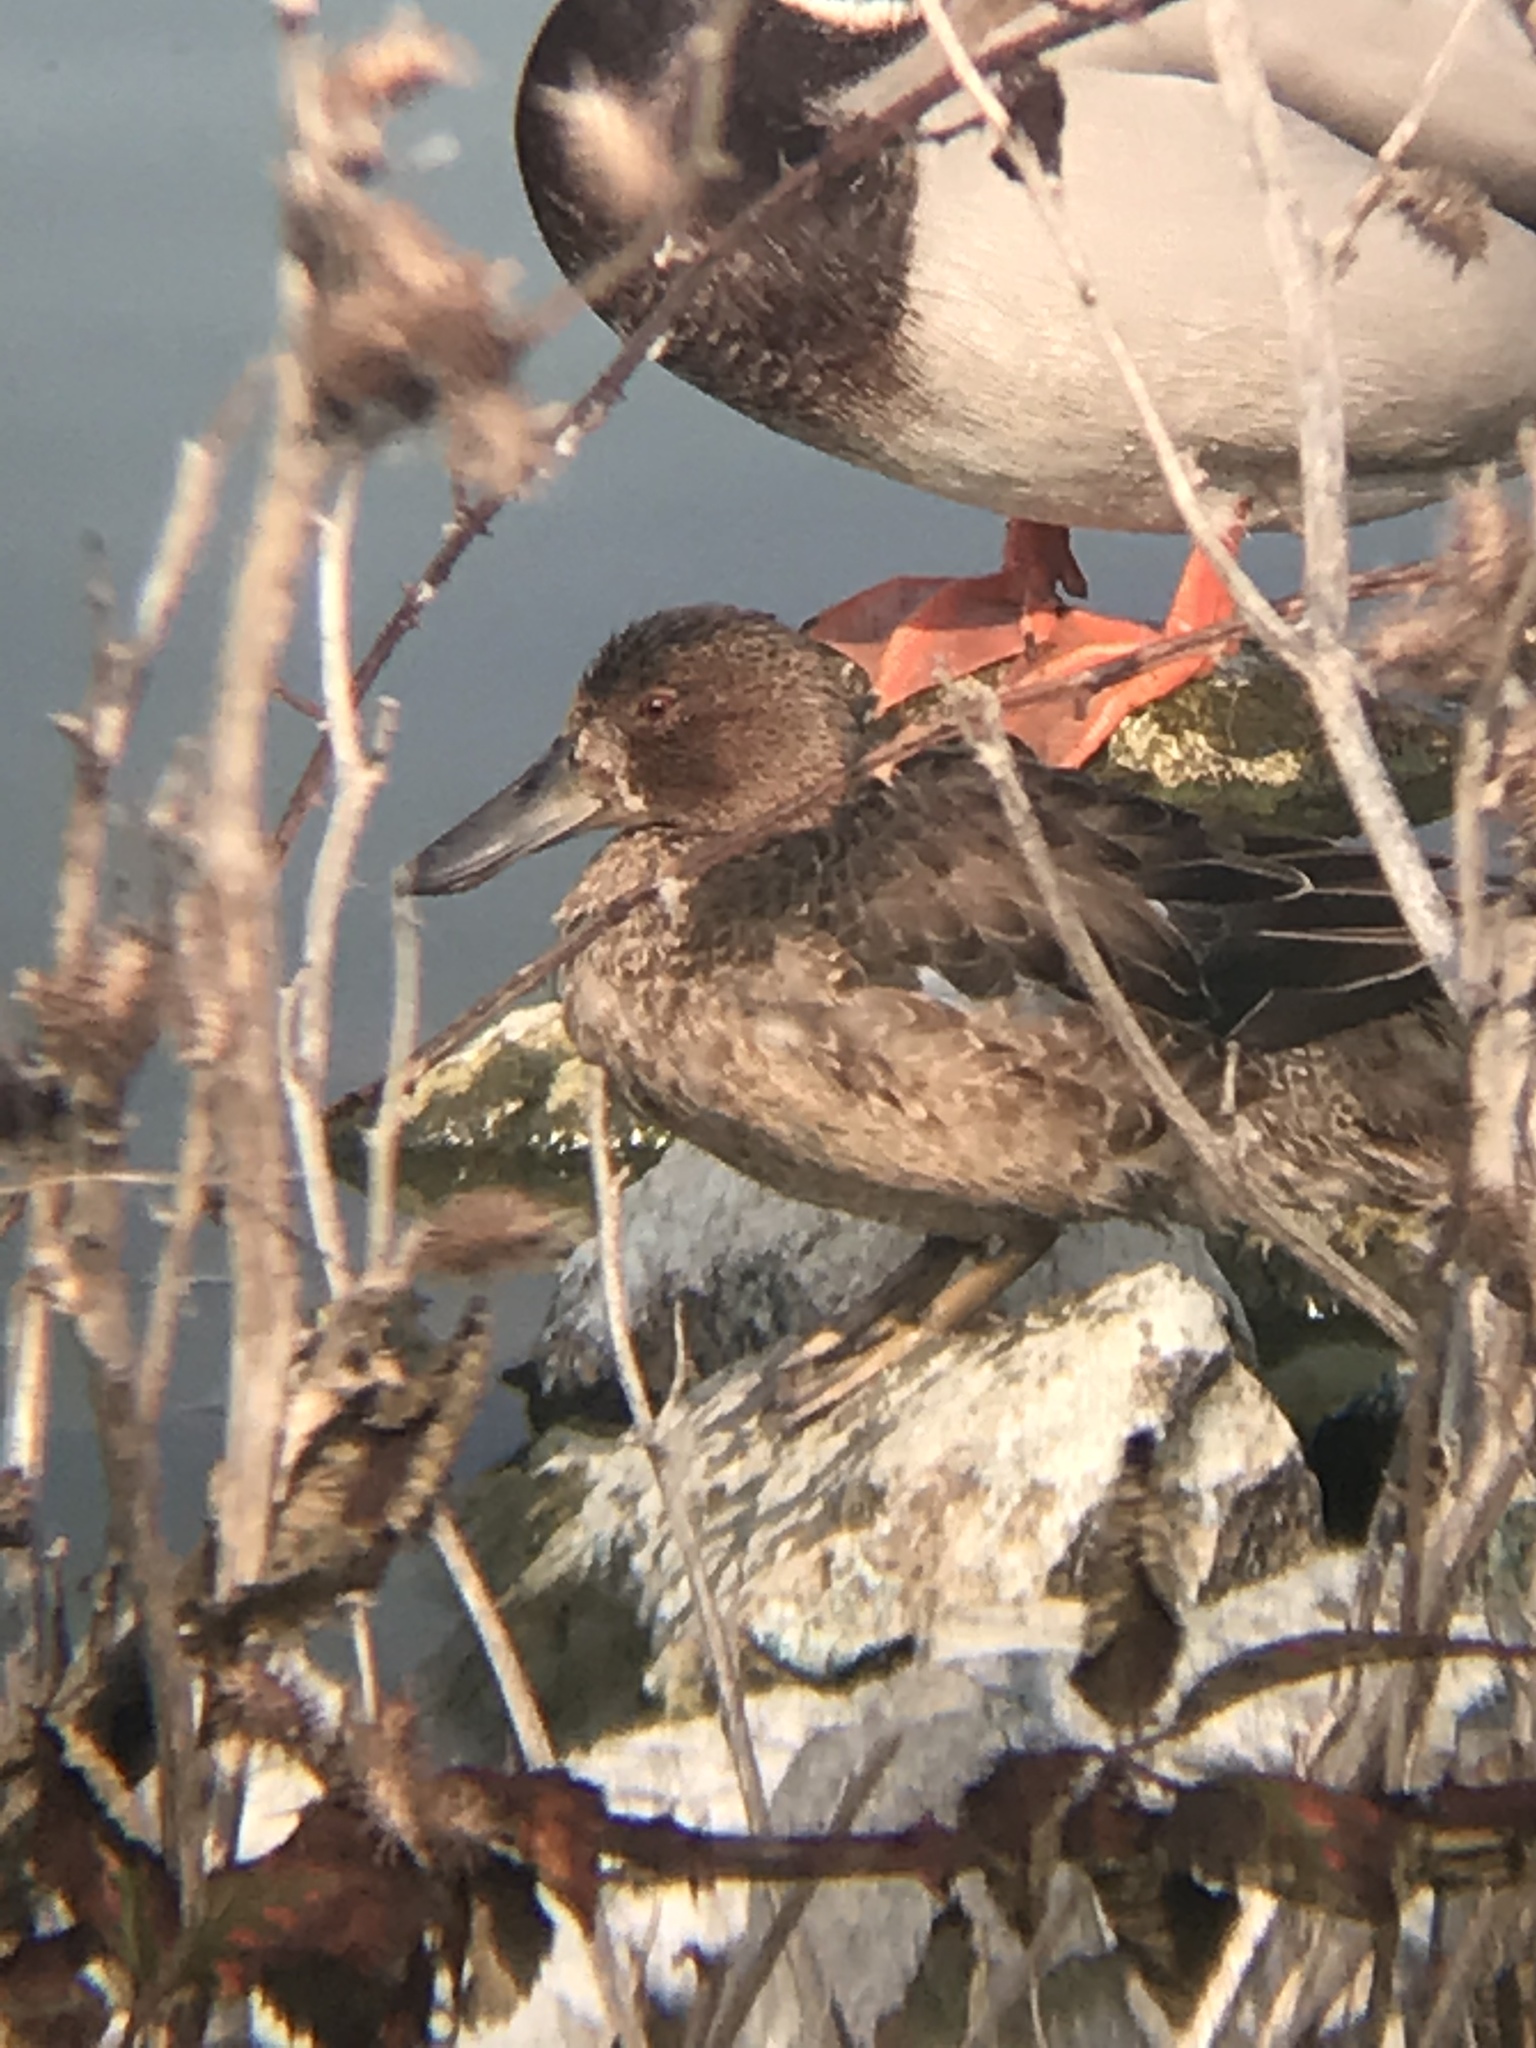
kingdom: Animalia
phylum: Chordata
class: Aves
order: Anseriformes
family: Anatidae
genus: Spatula
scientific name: Spatula cyanoptera
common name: Cinnamon teal
